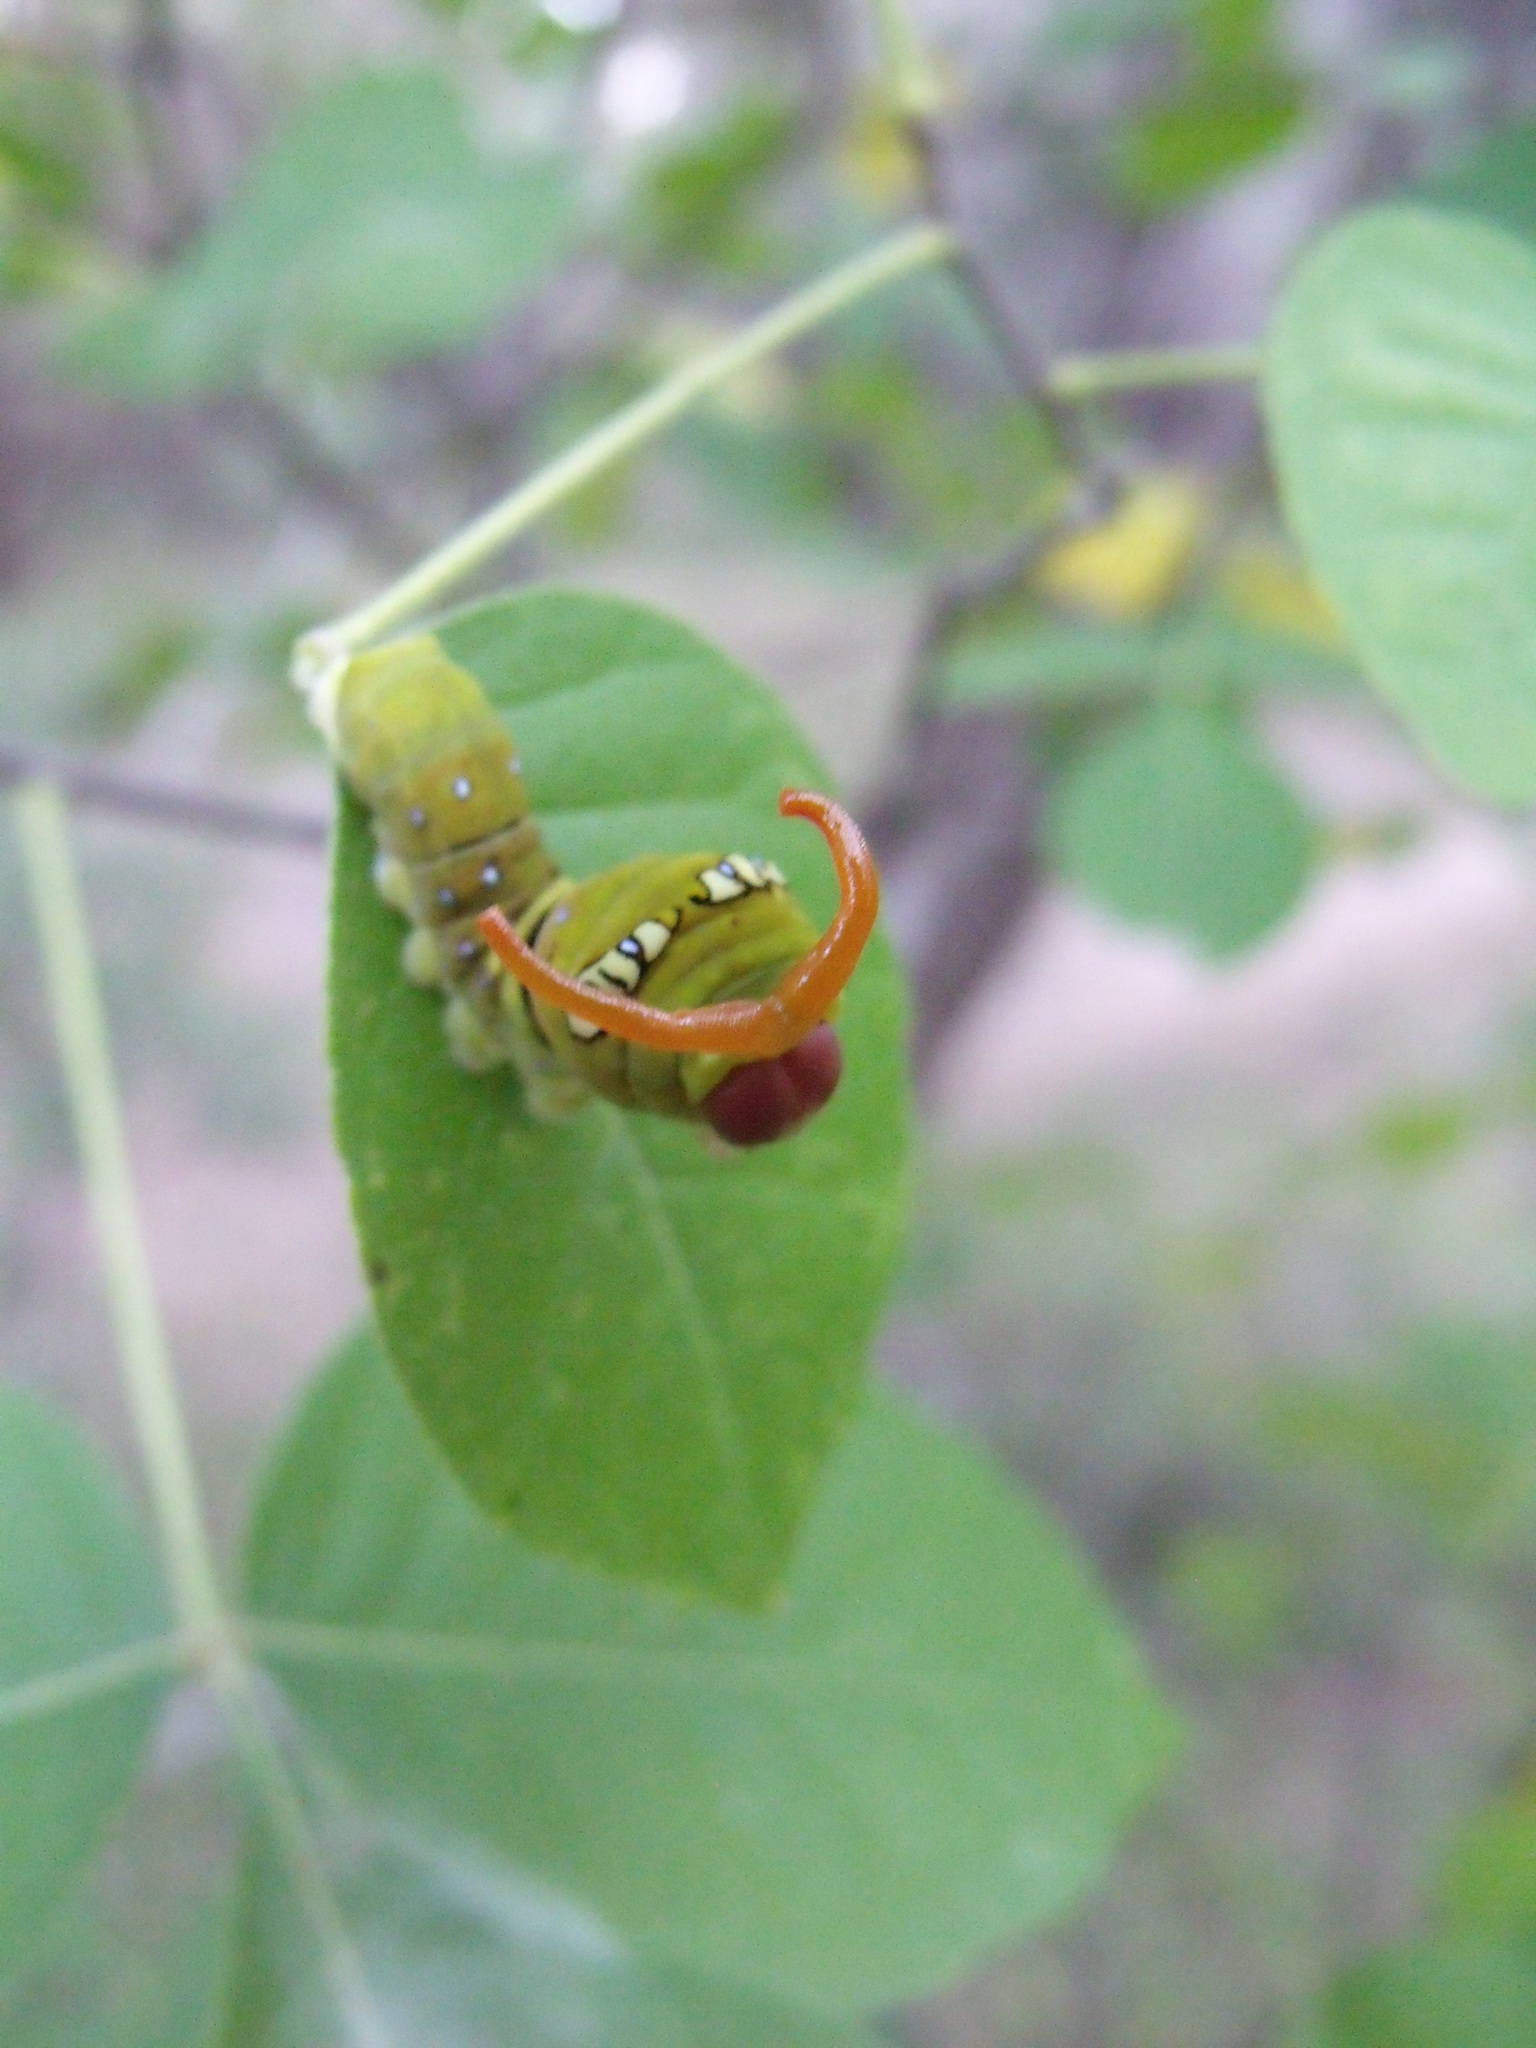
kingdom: Animalia
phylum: Arthropoda
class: Insecta
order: Lepidoptera
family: Papilionidae
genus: Papilio
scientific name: Papilio multicaudata
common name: Two-tailed tiger swallowtail
